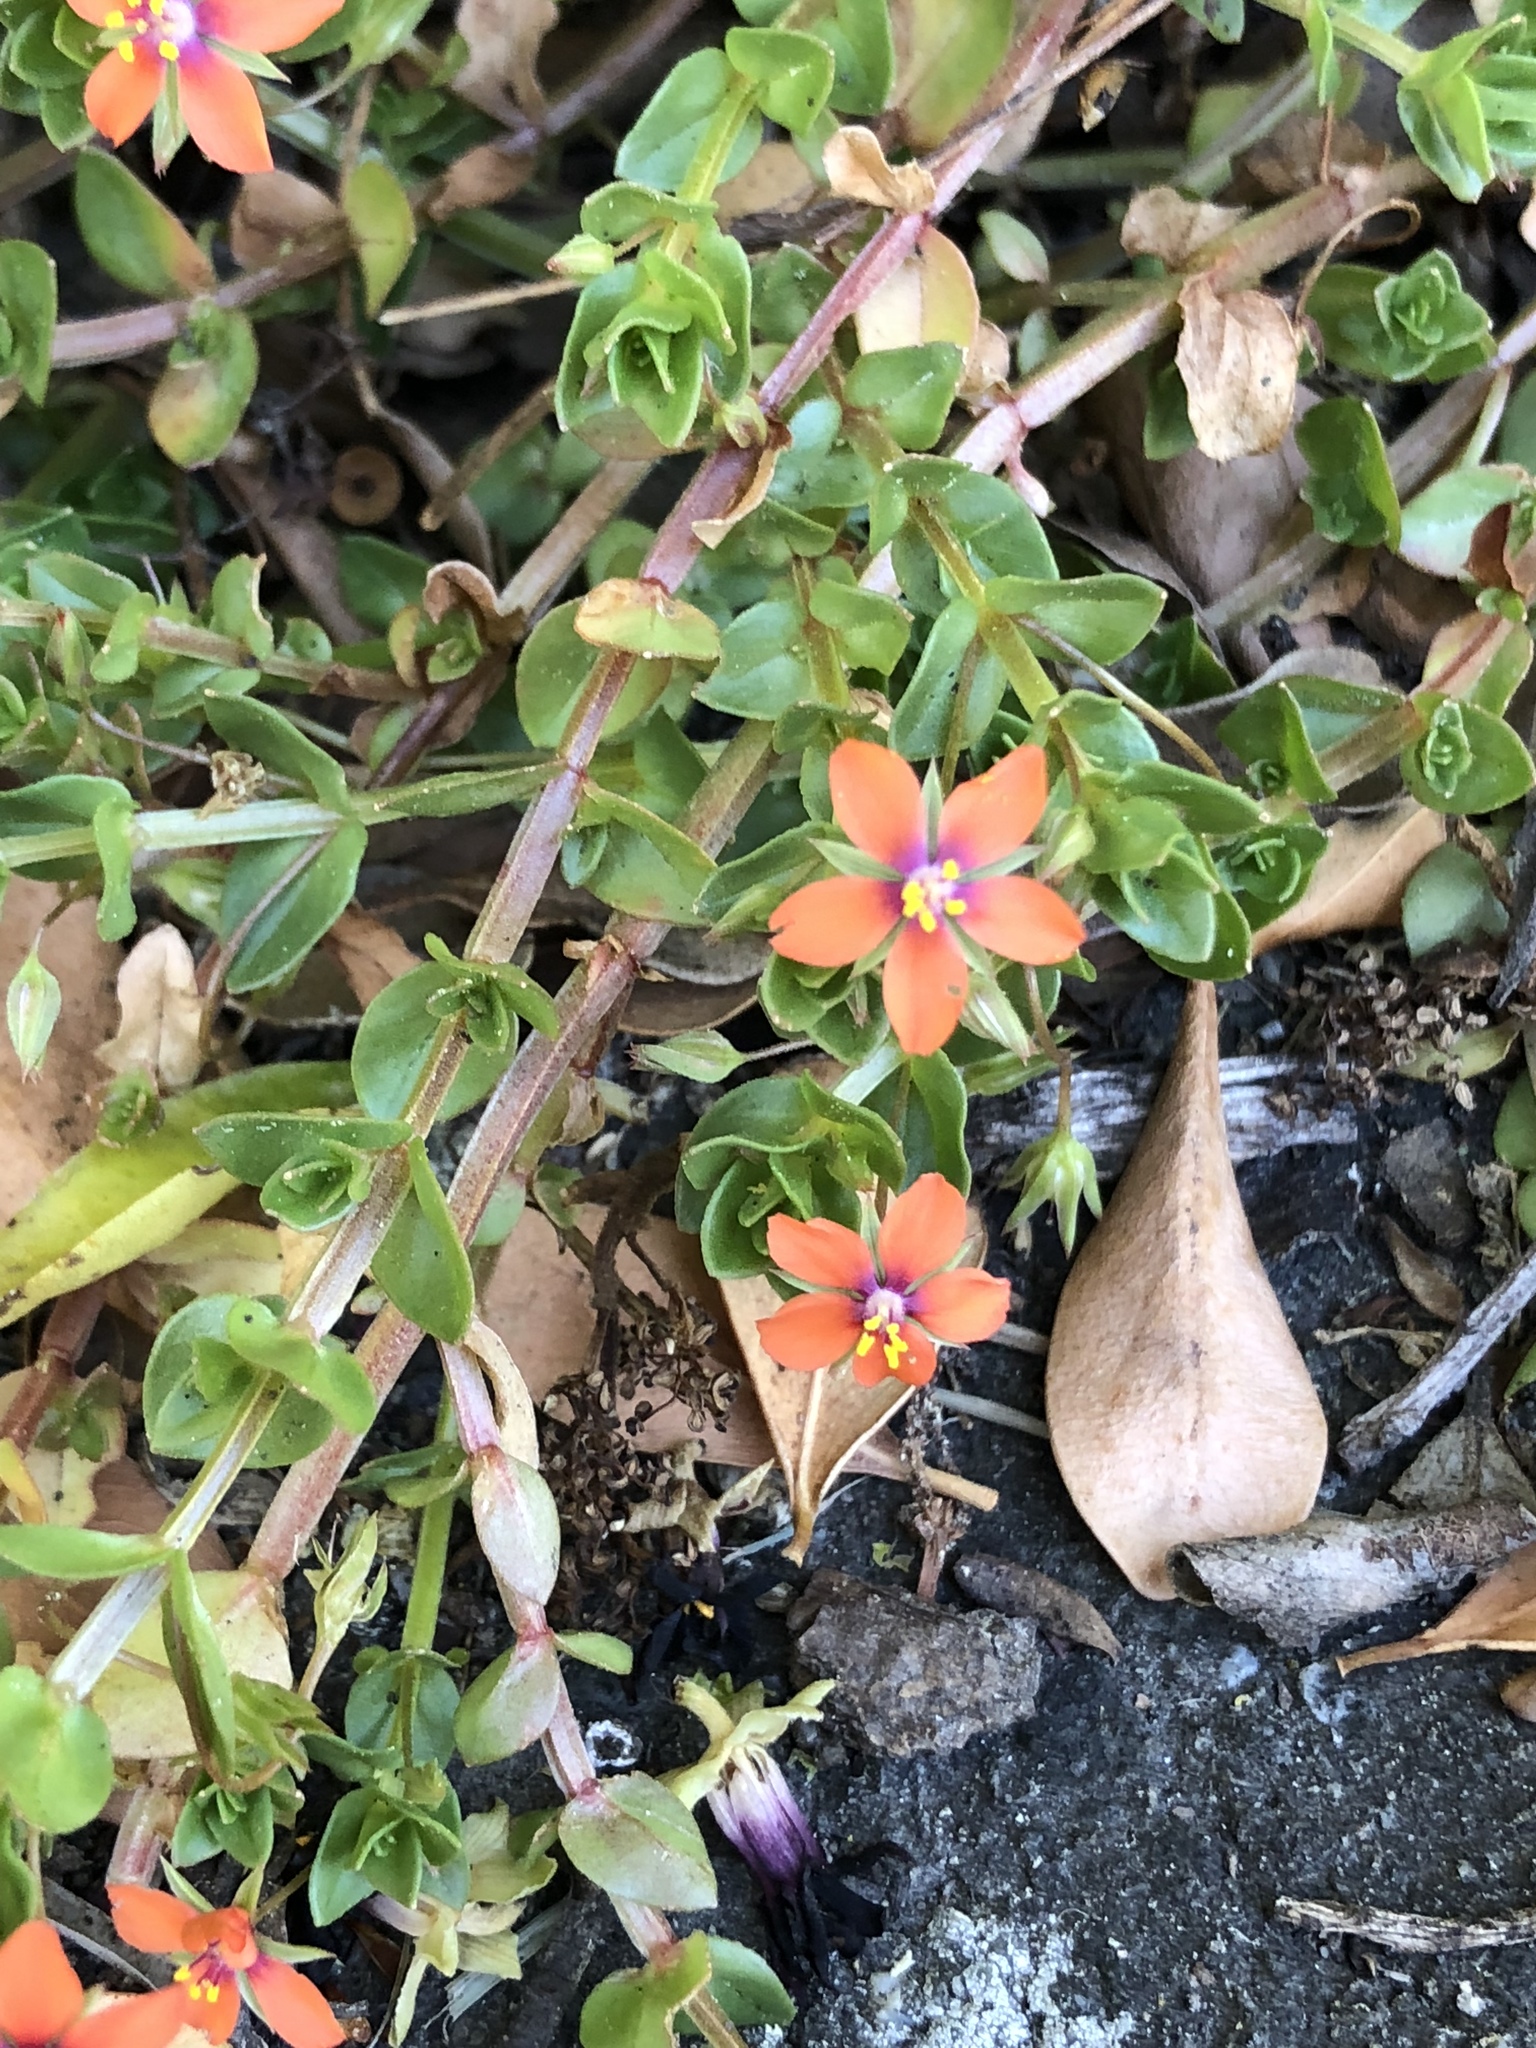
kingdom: Plantae
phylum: Tracheophyta
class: Magnoliopsida
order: Ericales
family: Primulaceae
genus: Lysimachia
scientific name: Lysimachia arvensis
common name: Scarlet pimpernel
